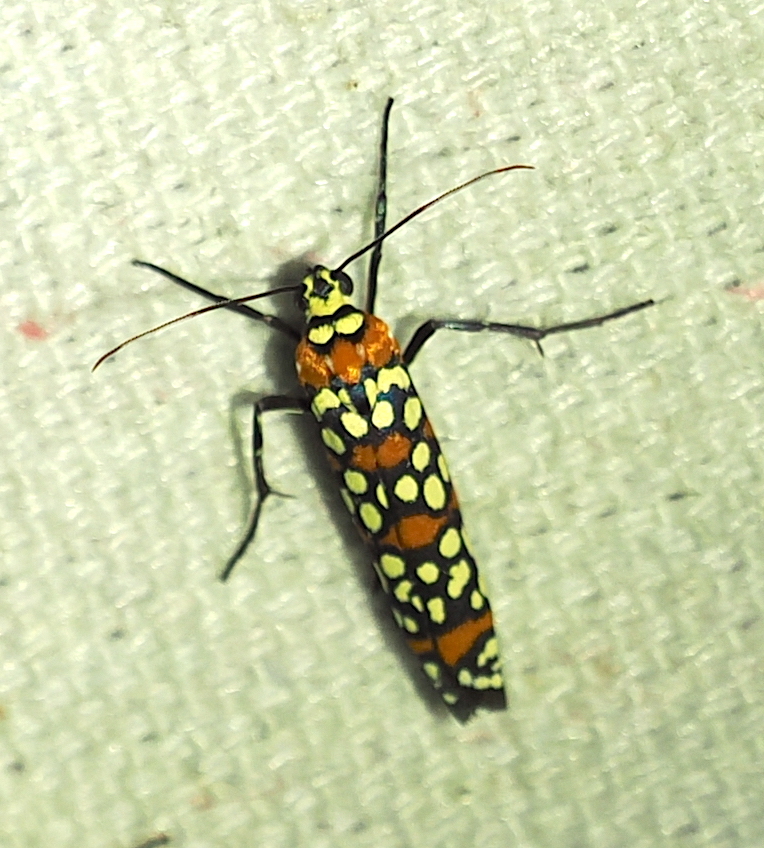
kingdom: Animalia
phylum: Arthropoda
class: Insecta
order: Lepidoptera
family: Attevidae
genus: Atteva
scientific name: Atteva punctella
